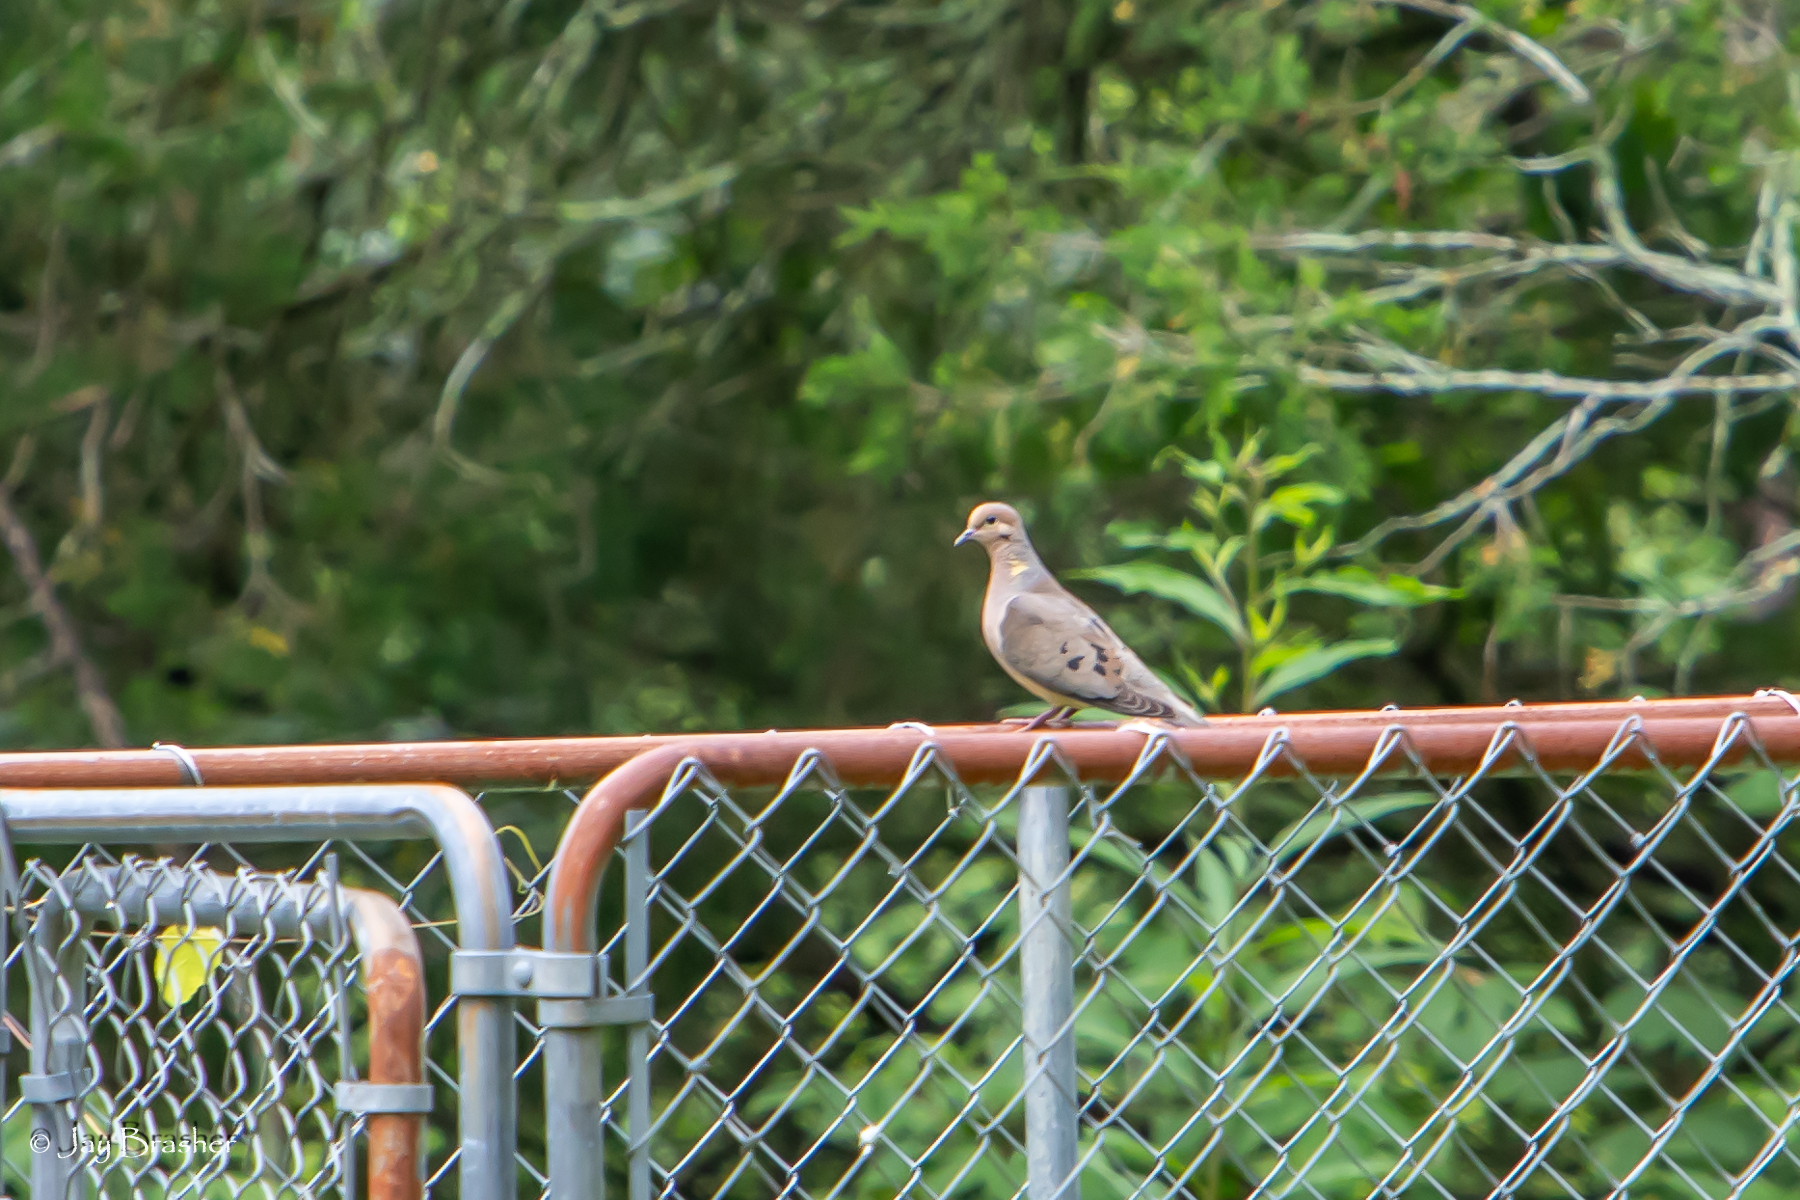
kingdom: Animalia
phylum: Chordata
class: Aves
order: Columbiformes
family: Columbidae
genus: Zenaida
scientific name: Zenaida macroura
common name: Mourning dove
